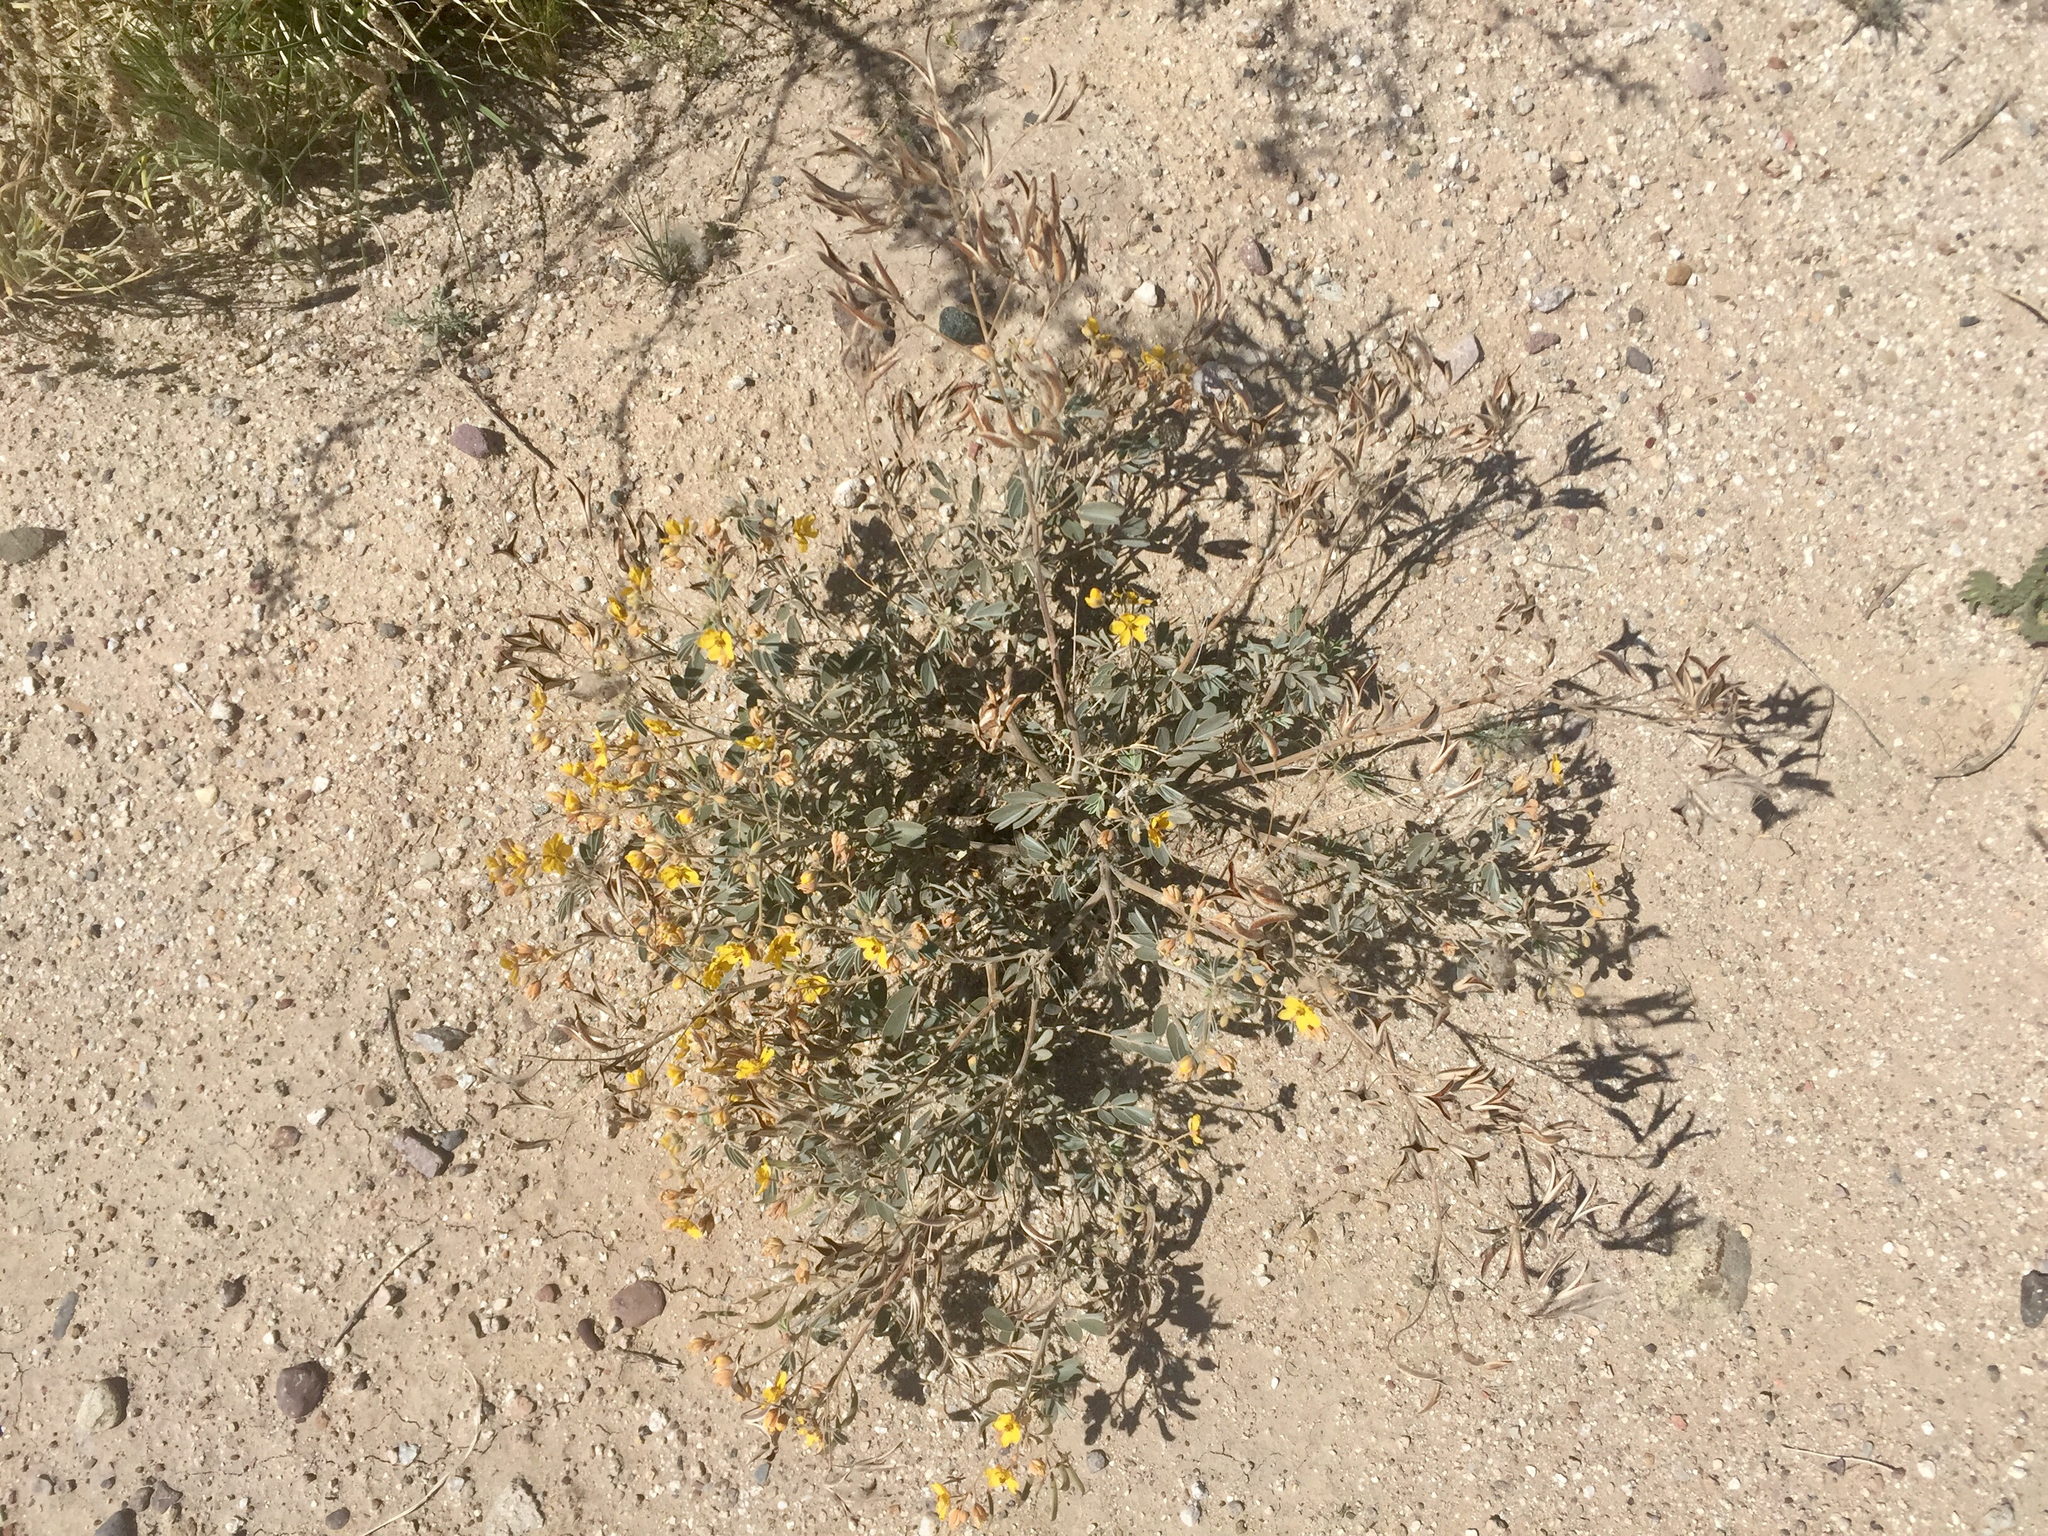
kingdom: Plantae
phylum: Tracheophyta
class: Magnoliopsida
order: Fabales
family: Fabaceae
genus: Senna
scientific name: Senna covesii
